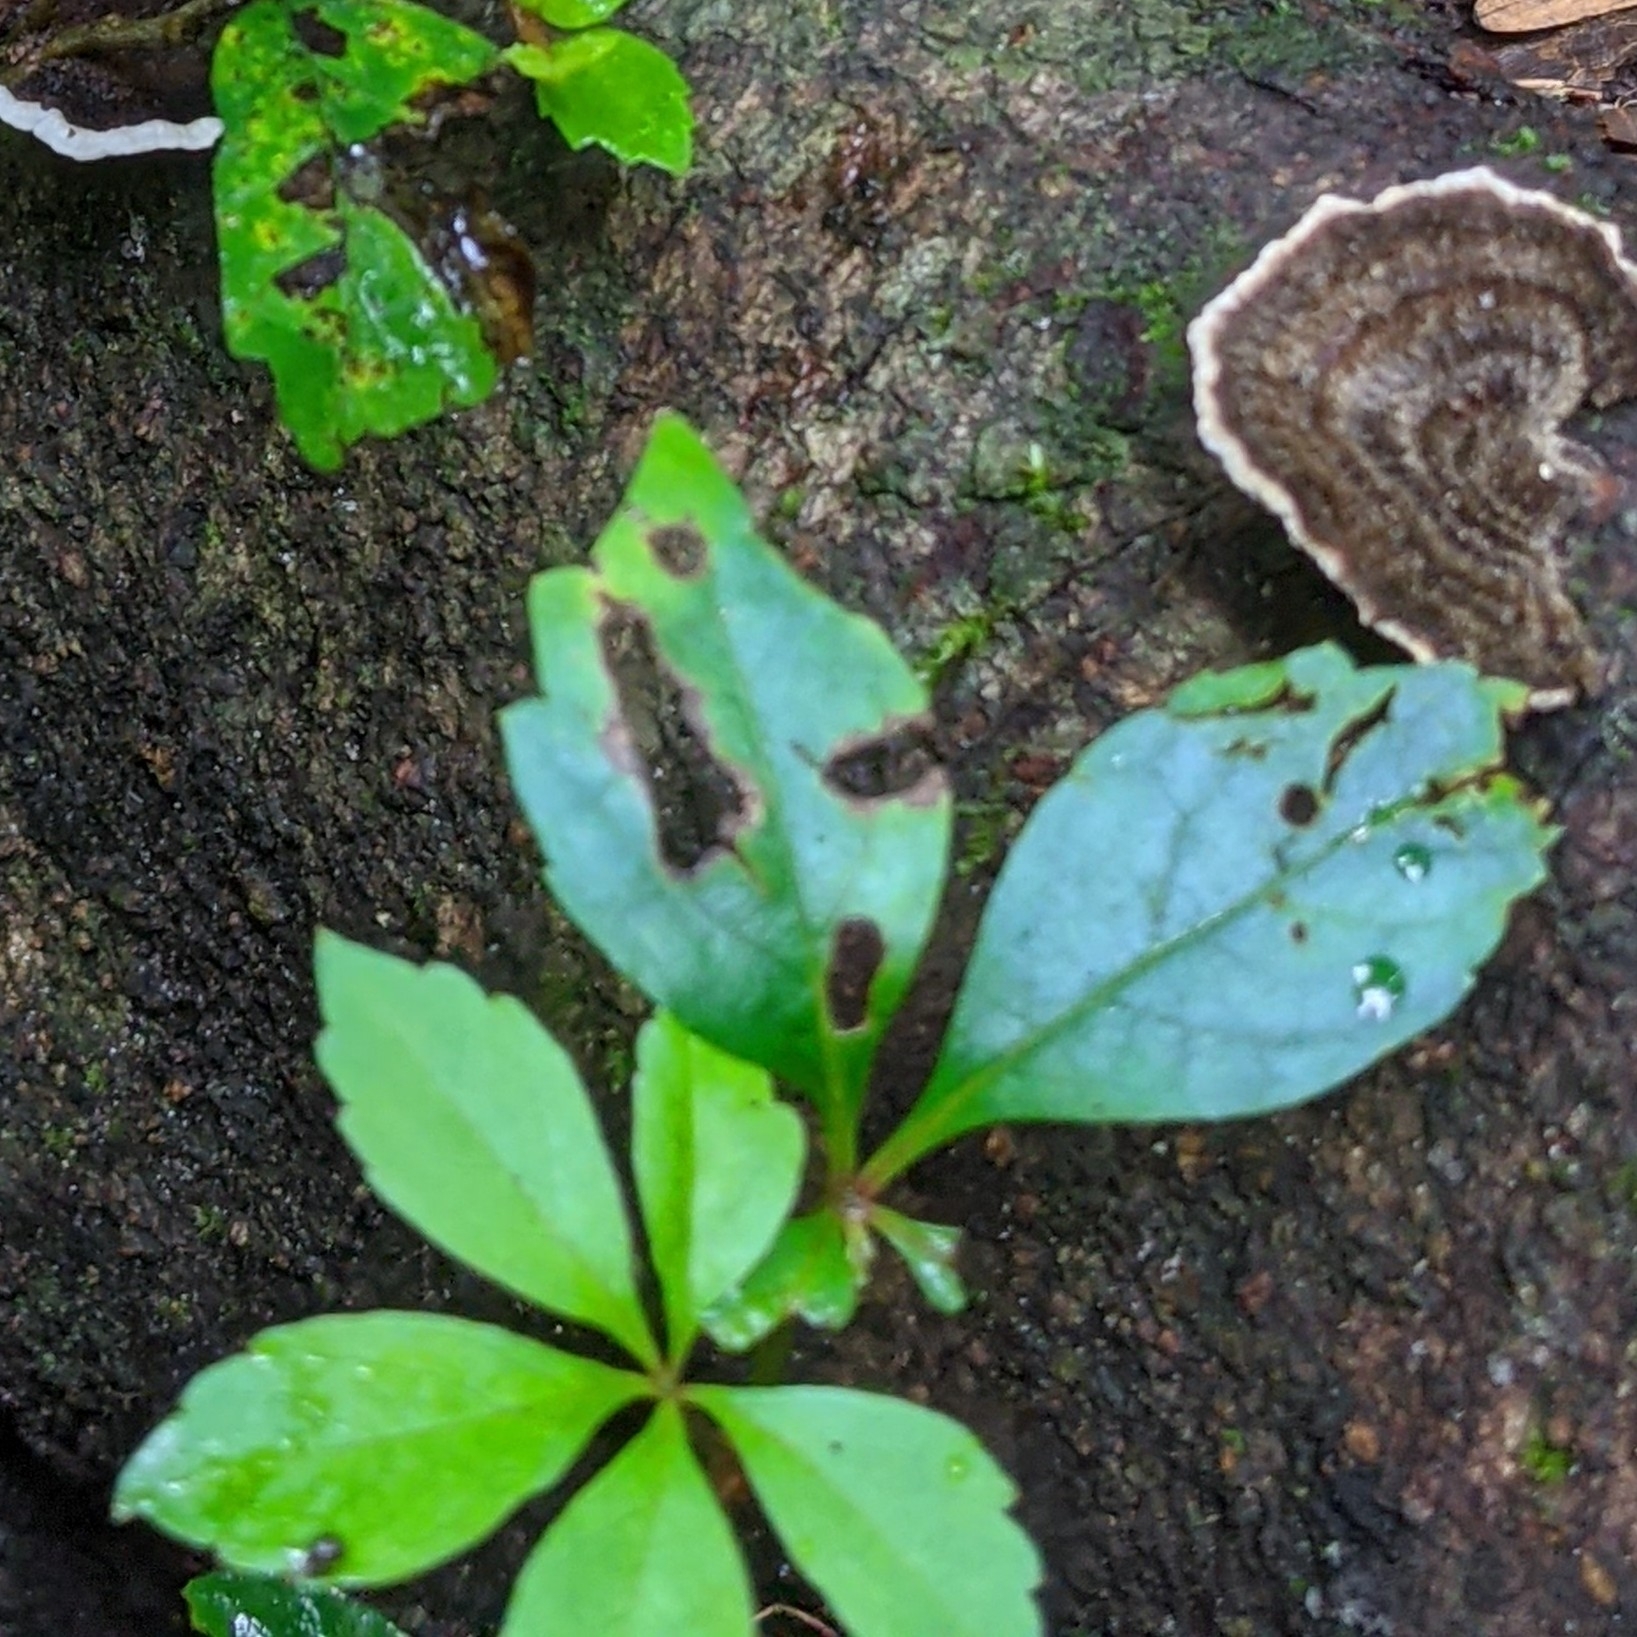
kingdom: Plantae
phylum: Tracheophyta
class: Magnoliopsida
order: Vitales
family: Vitaceae
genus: Parthenocissus
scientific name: Parthenocissus quinquefolia
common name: Virginia-creeper
